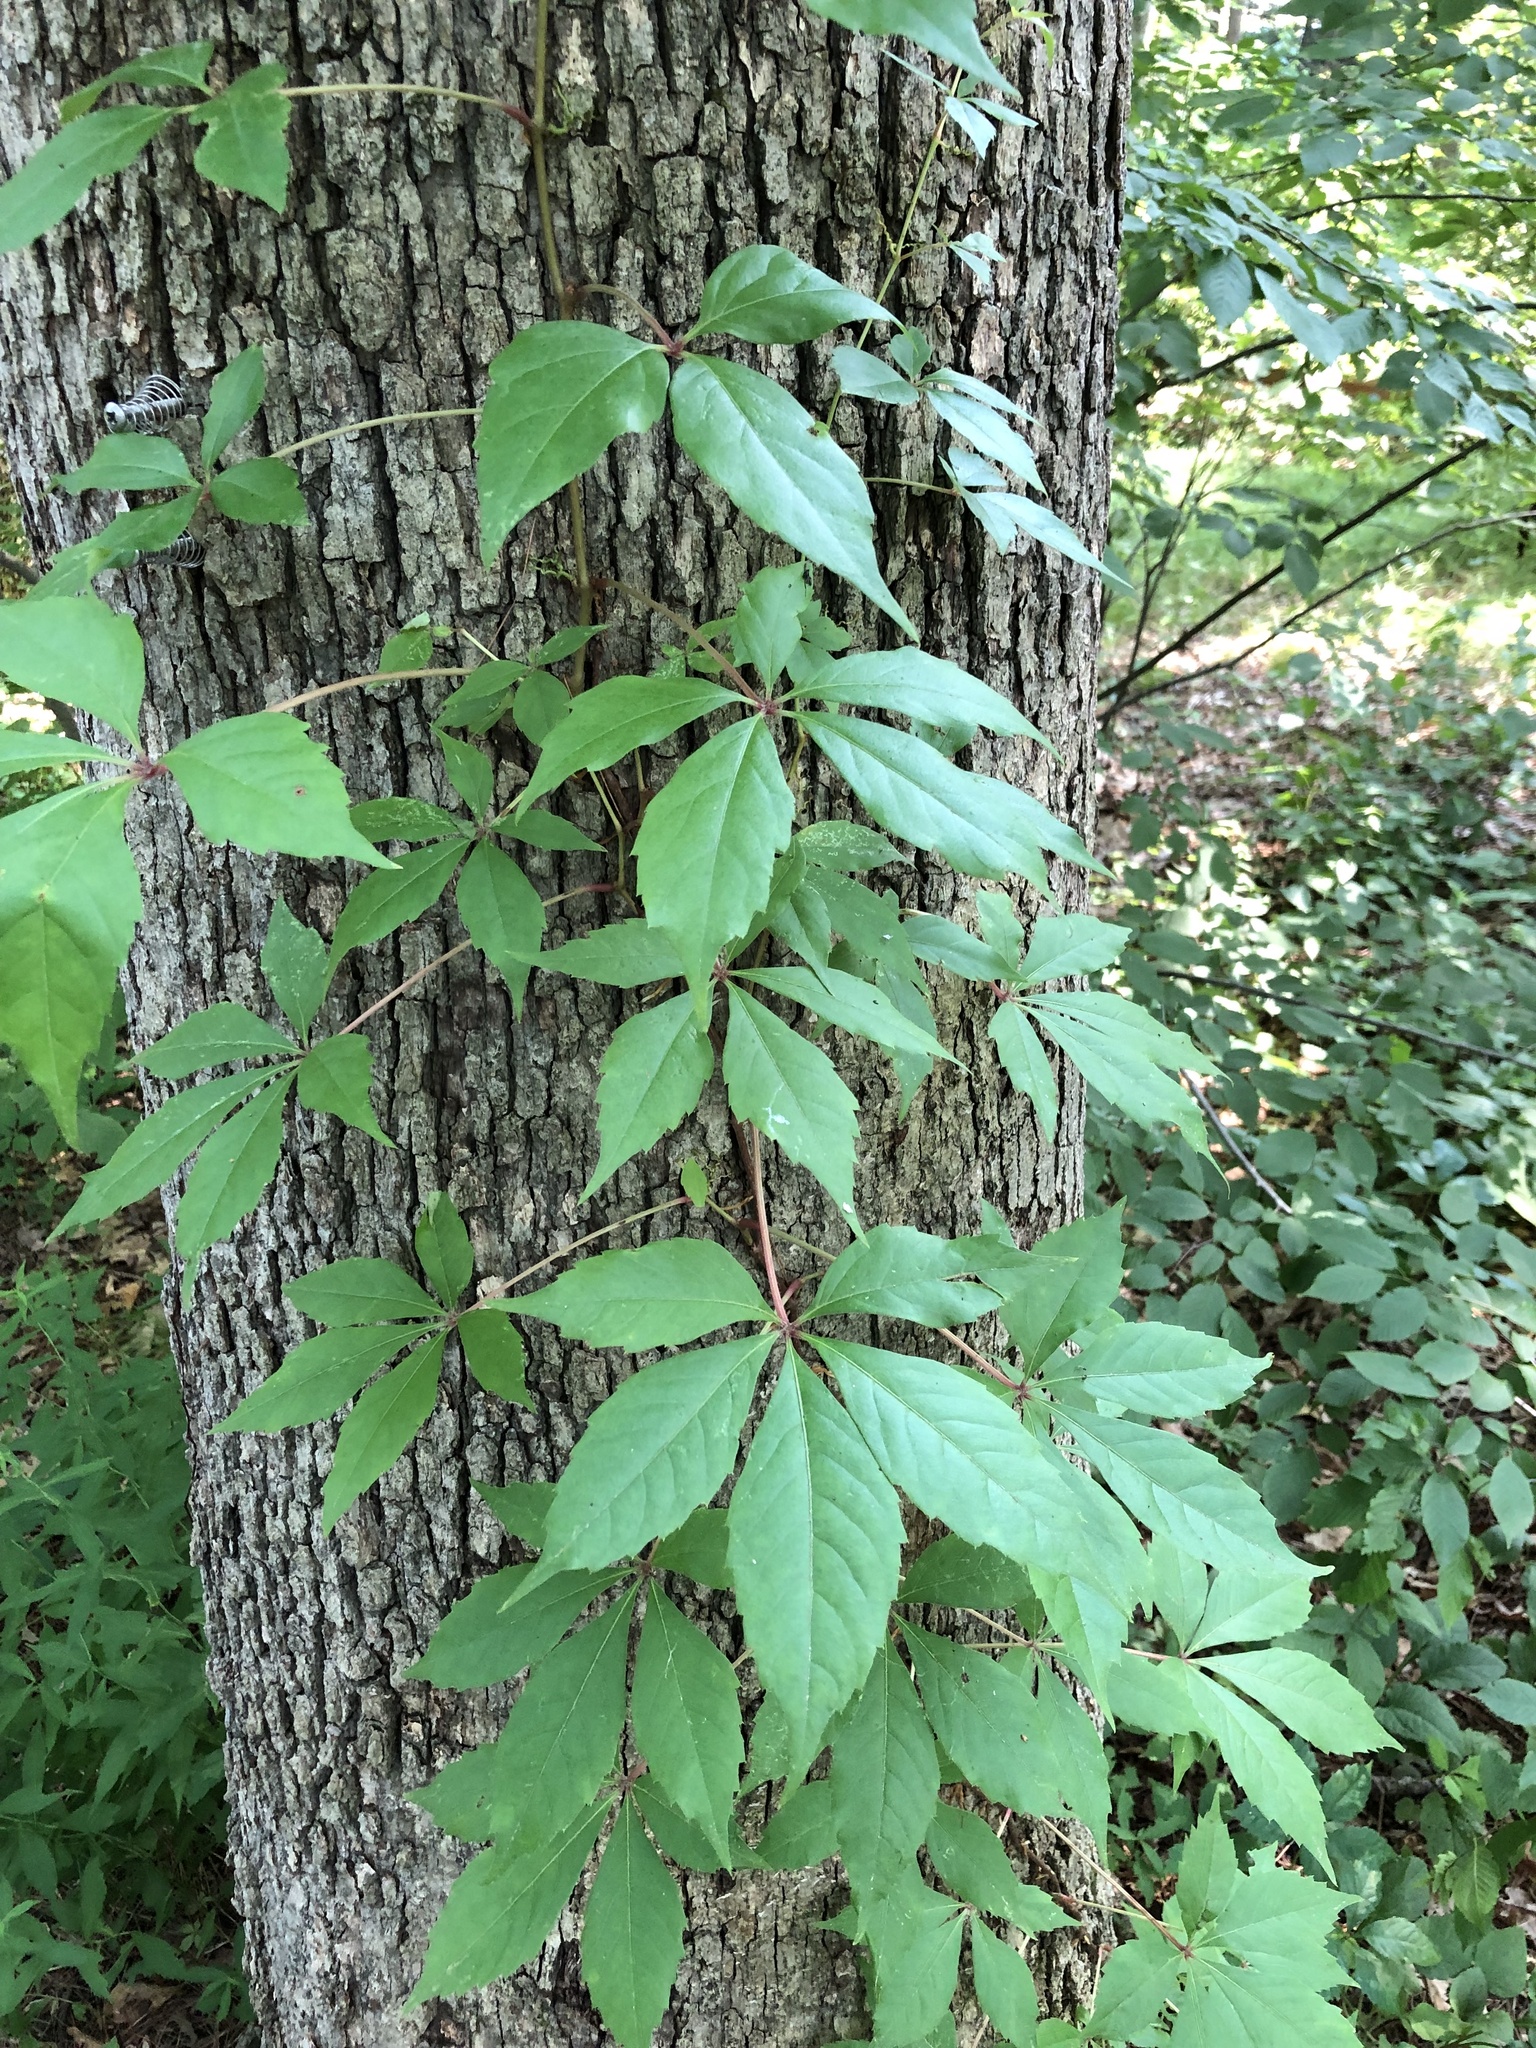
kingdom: Plantae
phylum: Tracheophyta
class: Magnoliopsida
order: Vitales
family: Vitaceae
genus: Parthenocissus
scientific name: Parthenocissus quinquefolia
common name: Virginia-creeper
